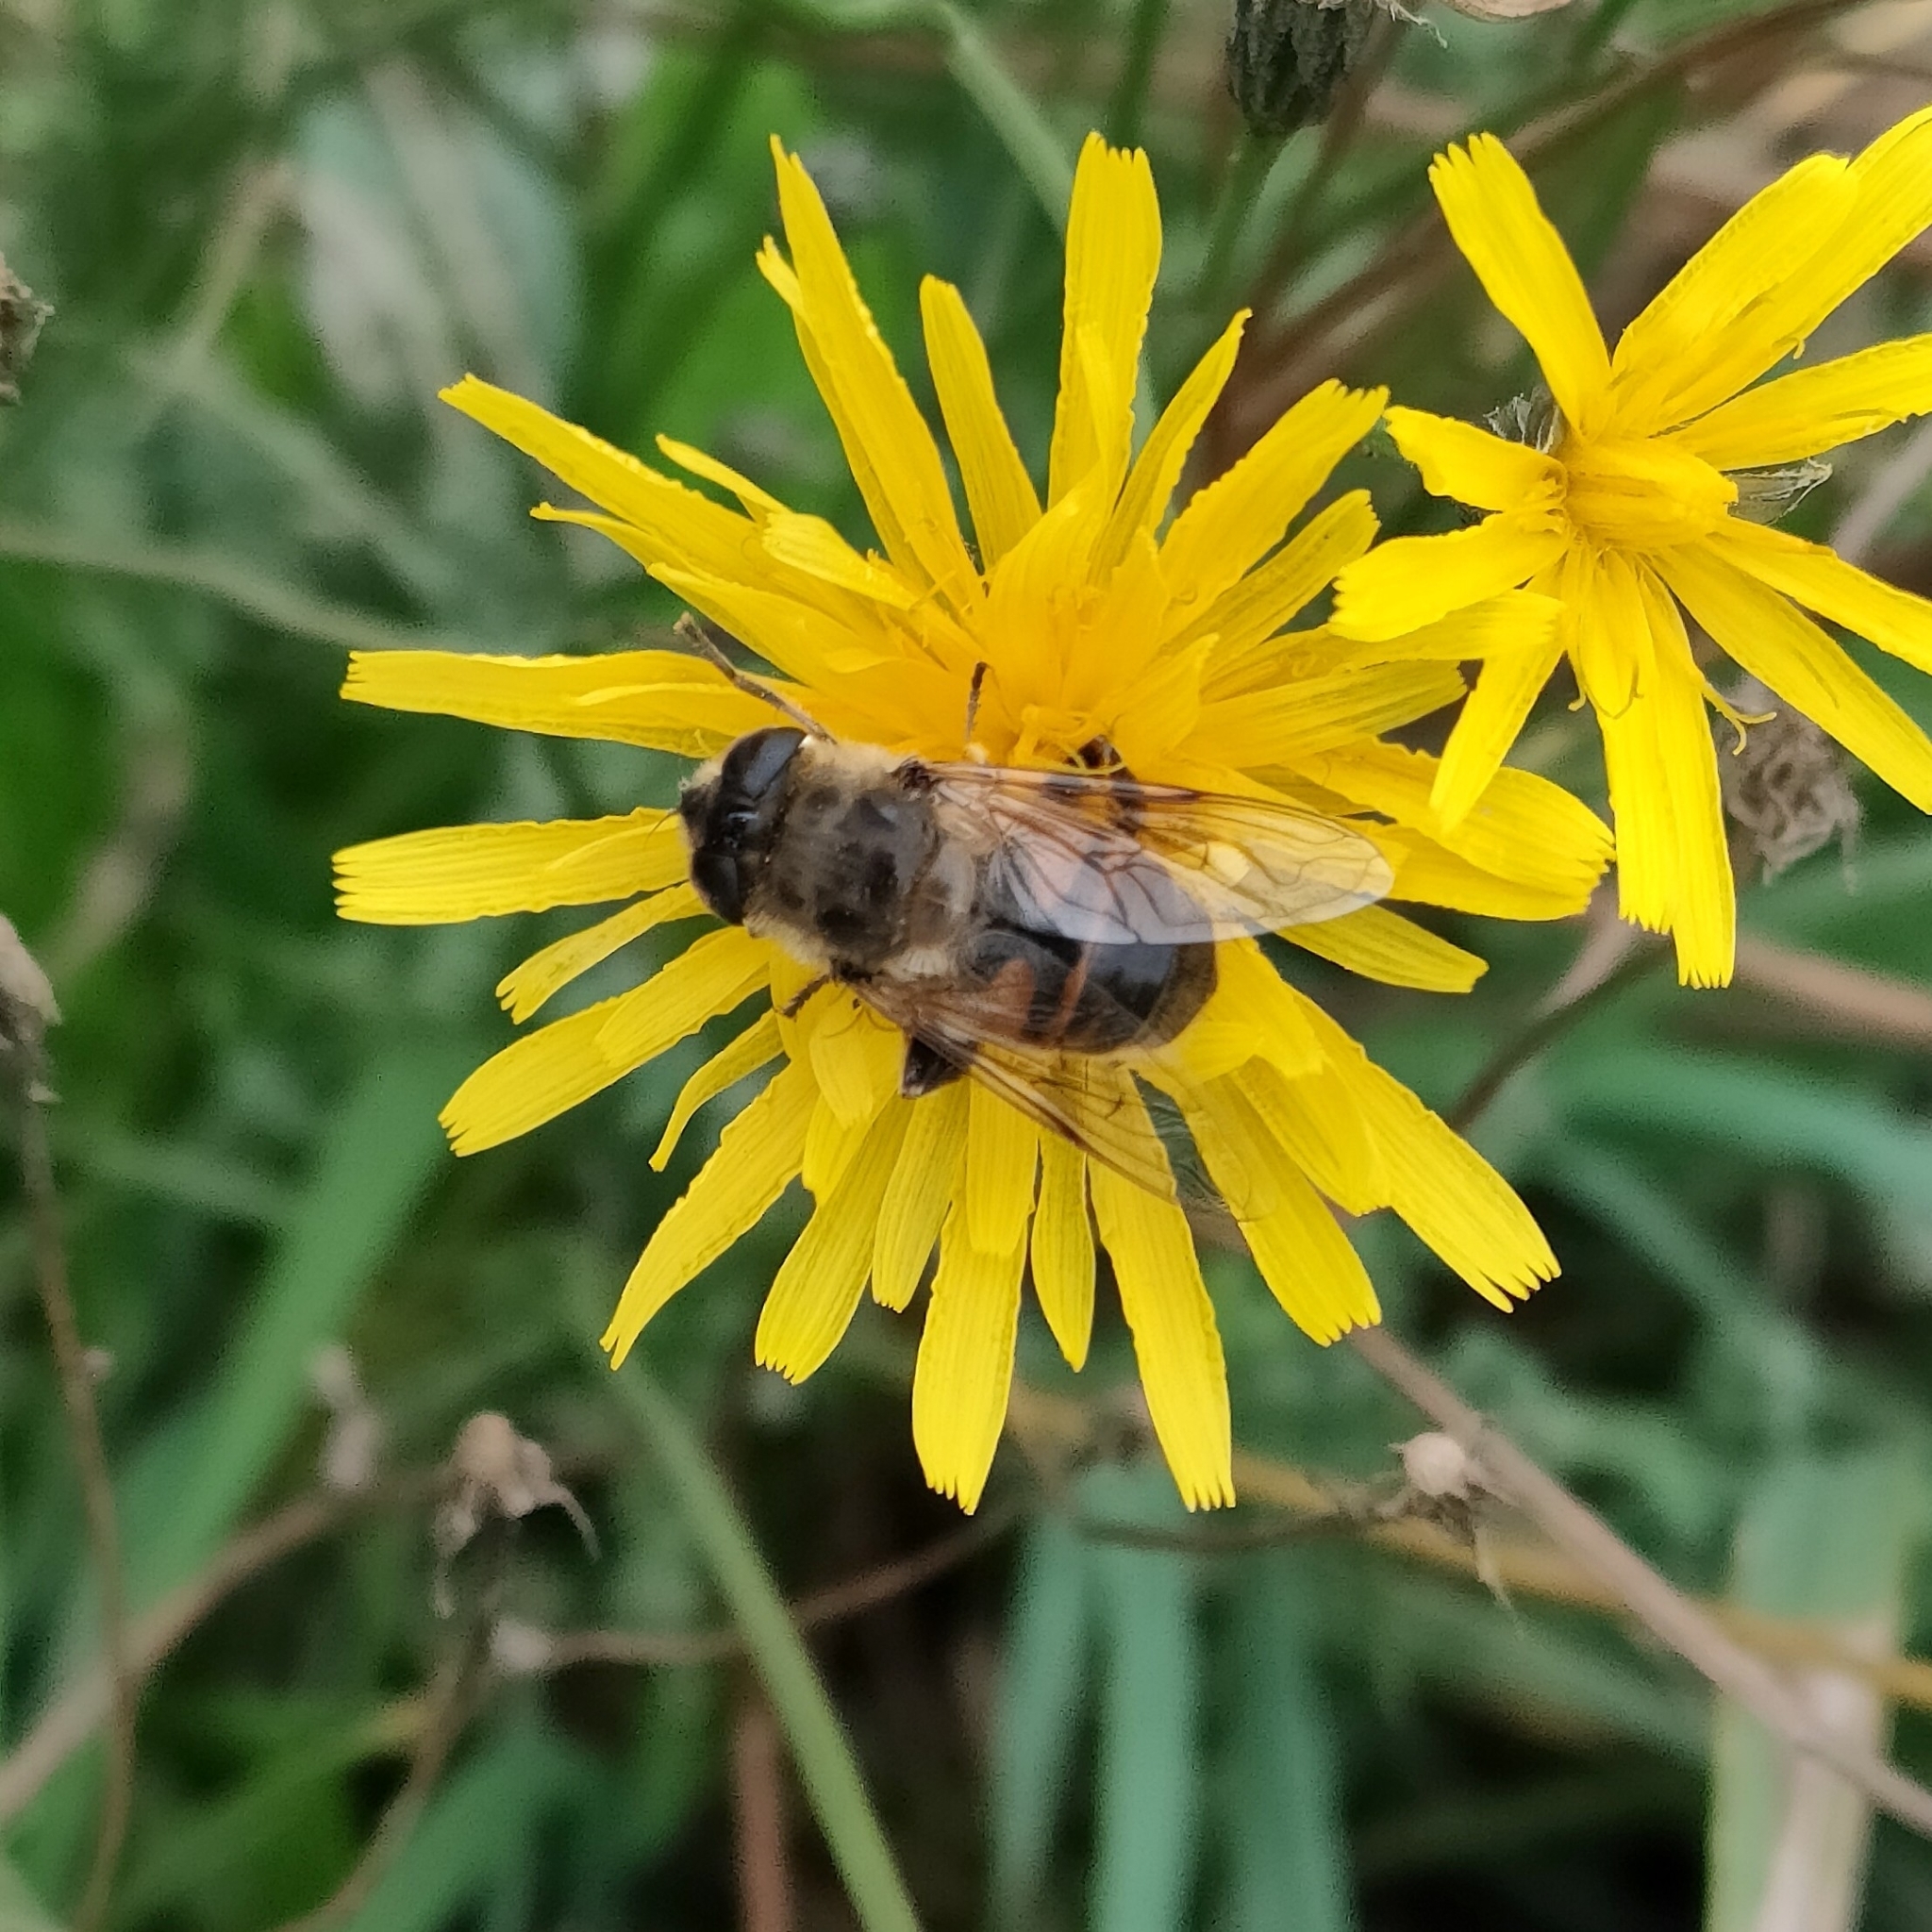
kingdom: Animalia
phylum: Arthropoda
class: Insecta
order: Diptera
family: Syrphidae
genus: Eristalis
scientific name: Eristalis tenax
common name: Drone fly
